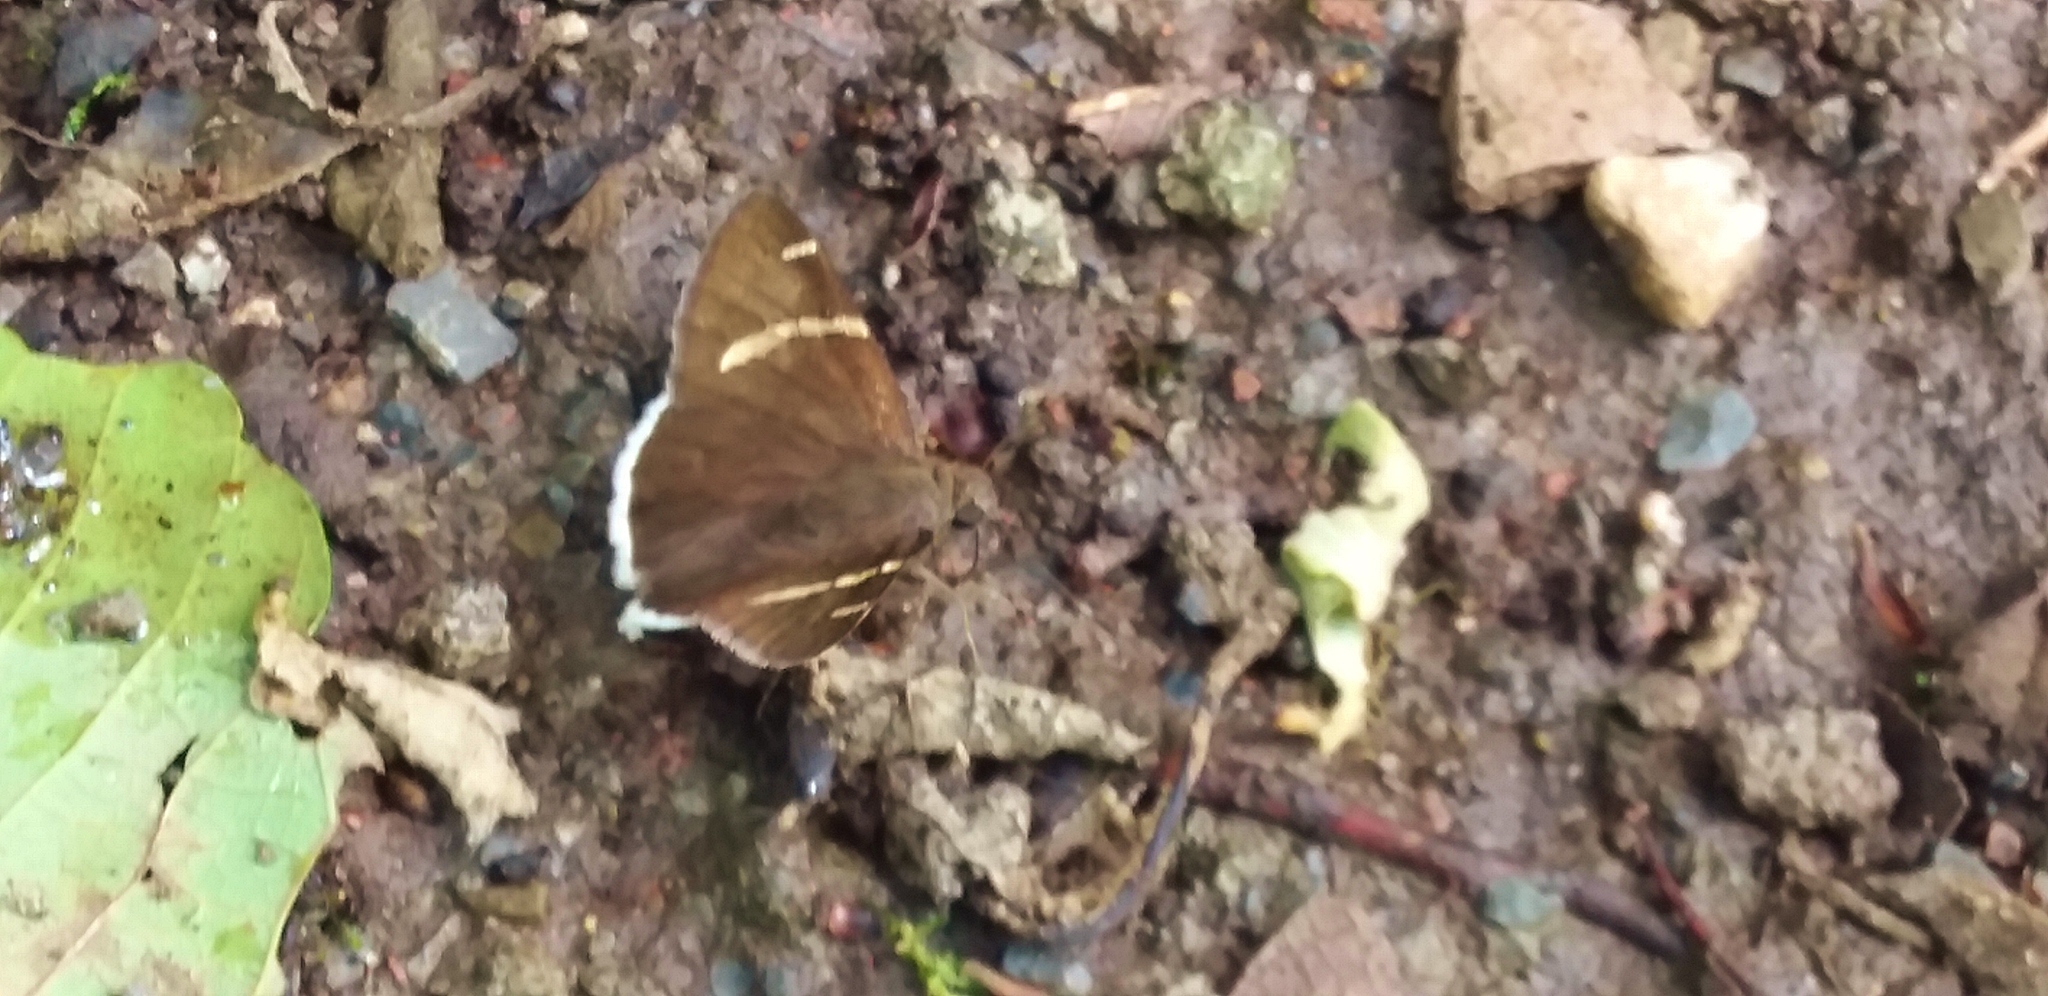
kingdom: Animalia
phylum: Arthropoda
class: Insecta
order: Lepidoptera
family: Hesperiidae
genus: Thorybes
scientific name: Thorybes cincta
